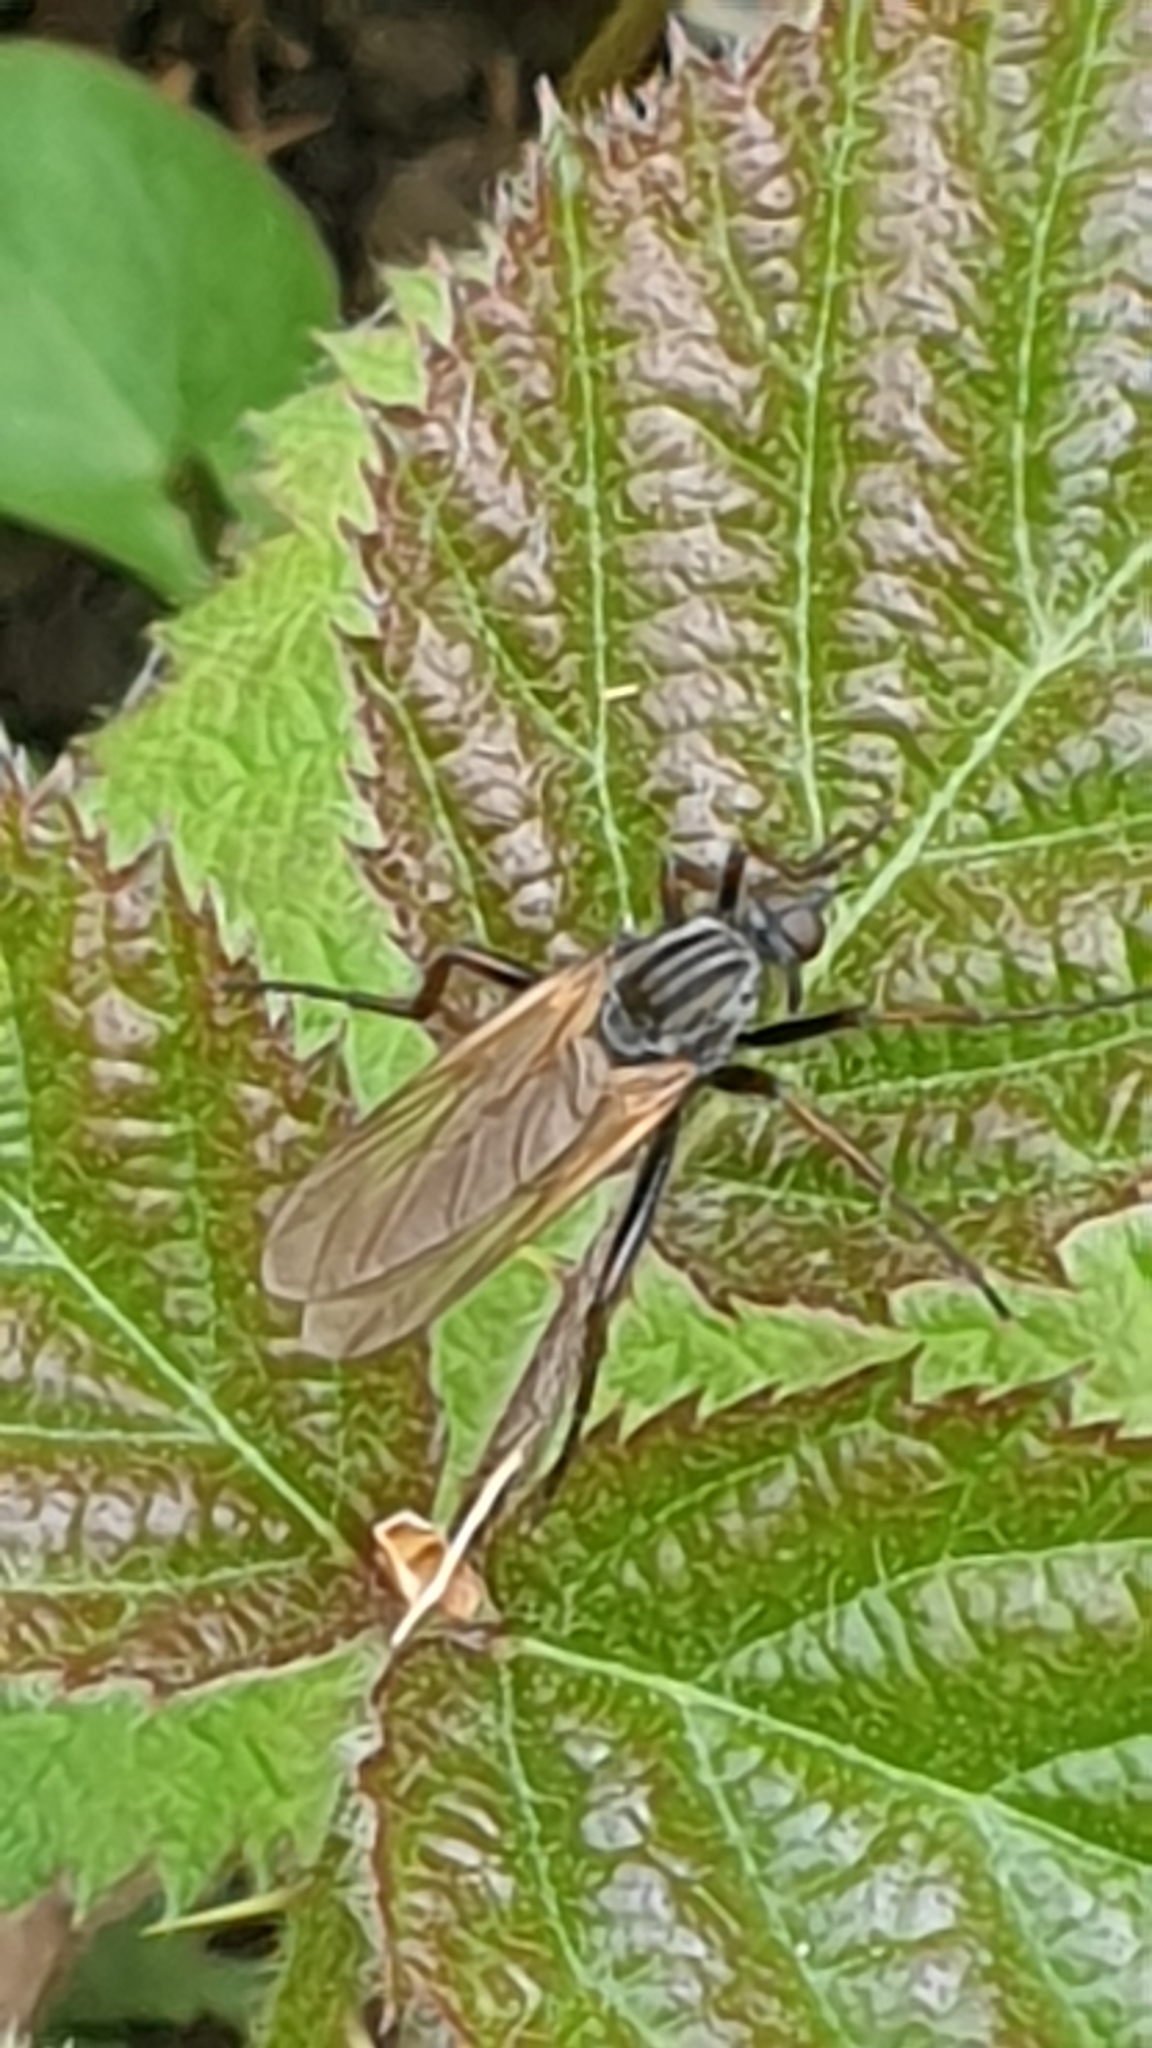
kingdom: Animalia
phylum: Arthropoda
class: Insecta
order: Diptera
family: Empididae
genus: Empis
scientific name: Empis tessellata
